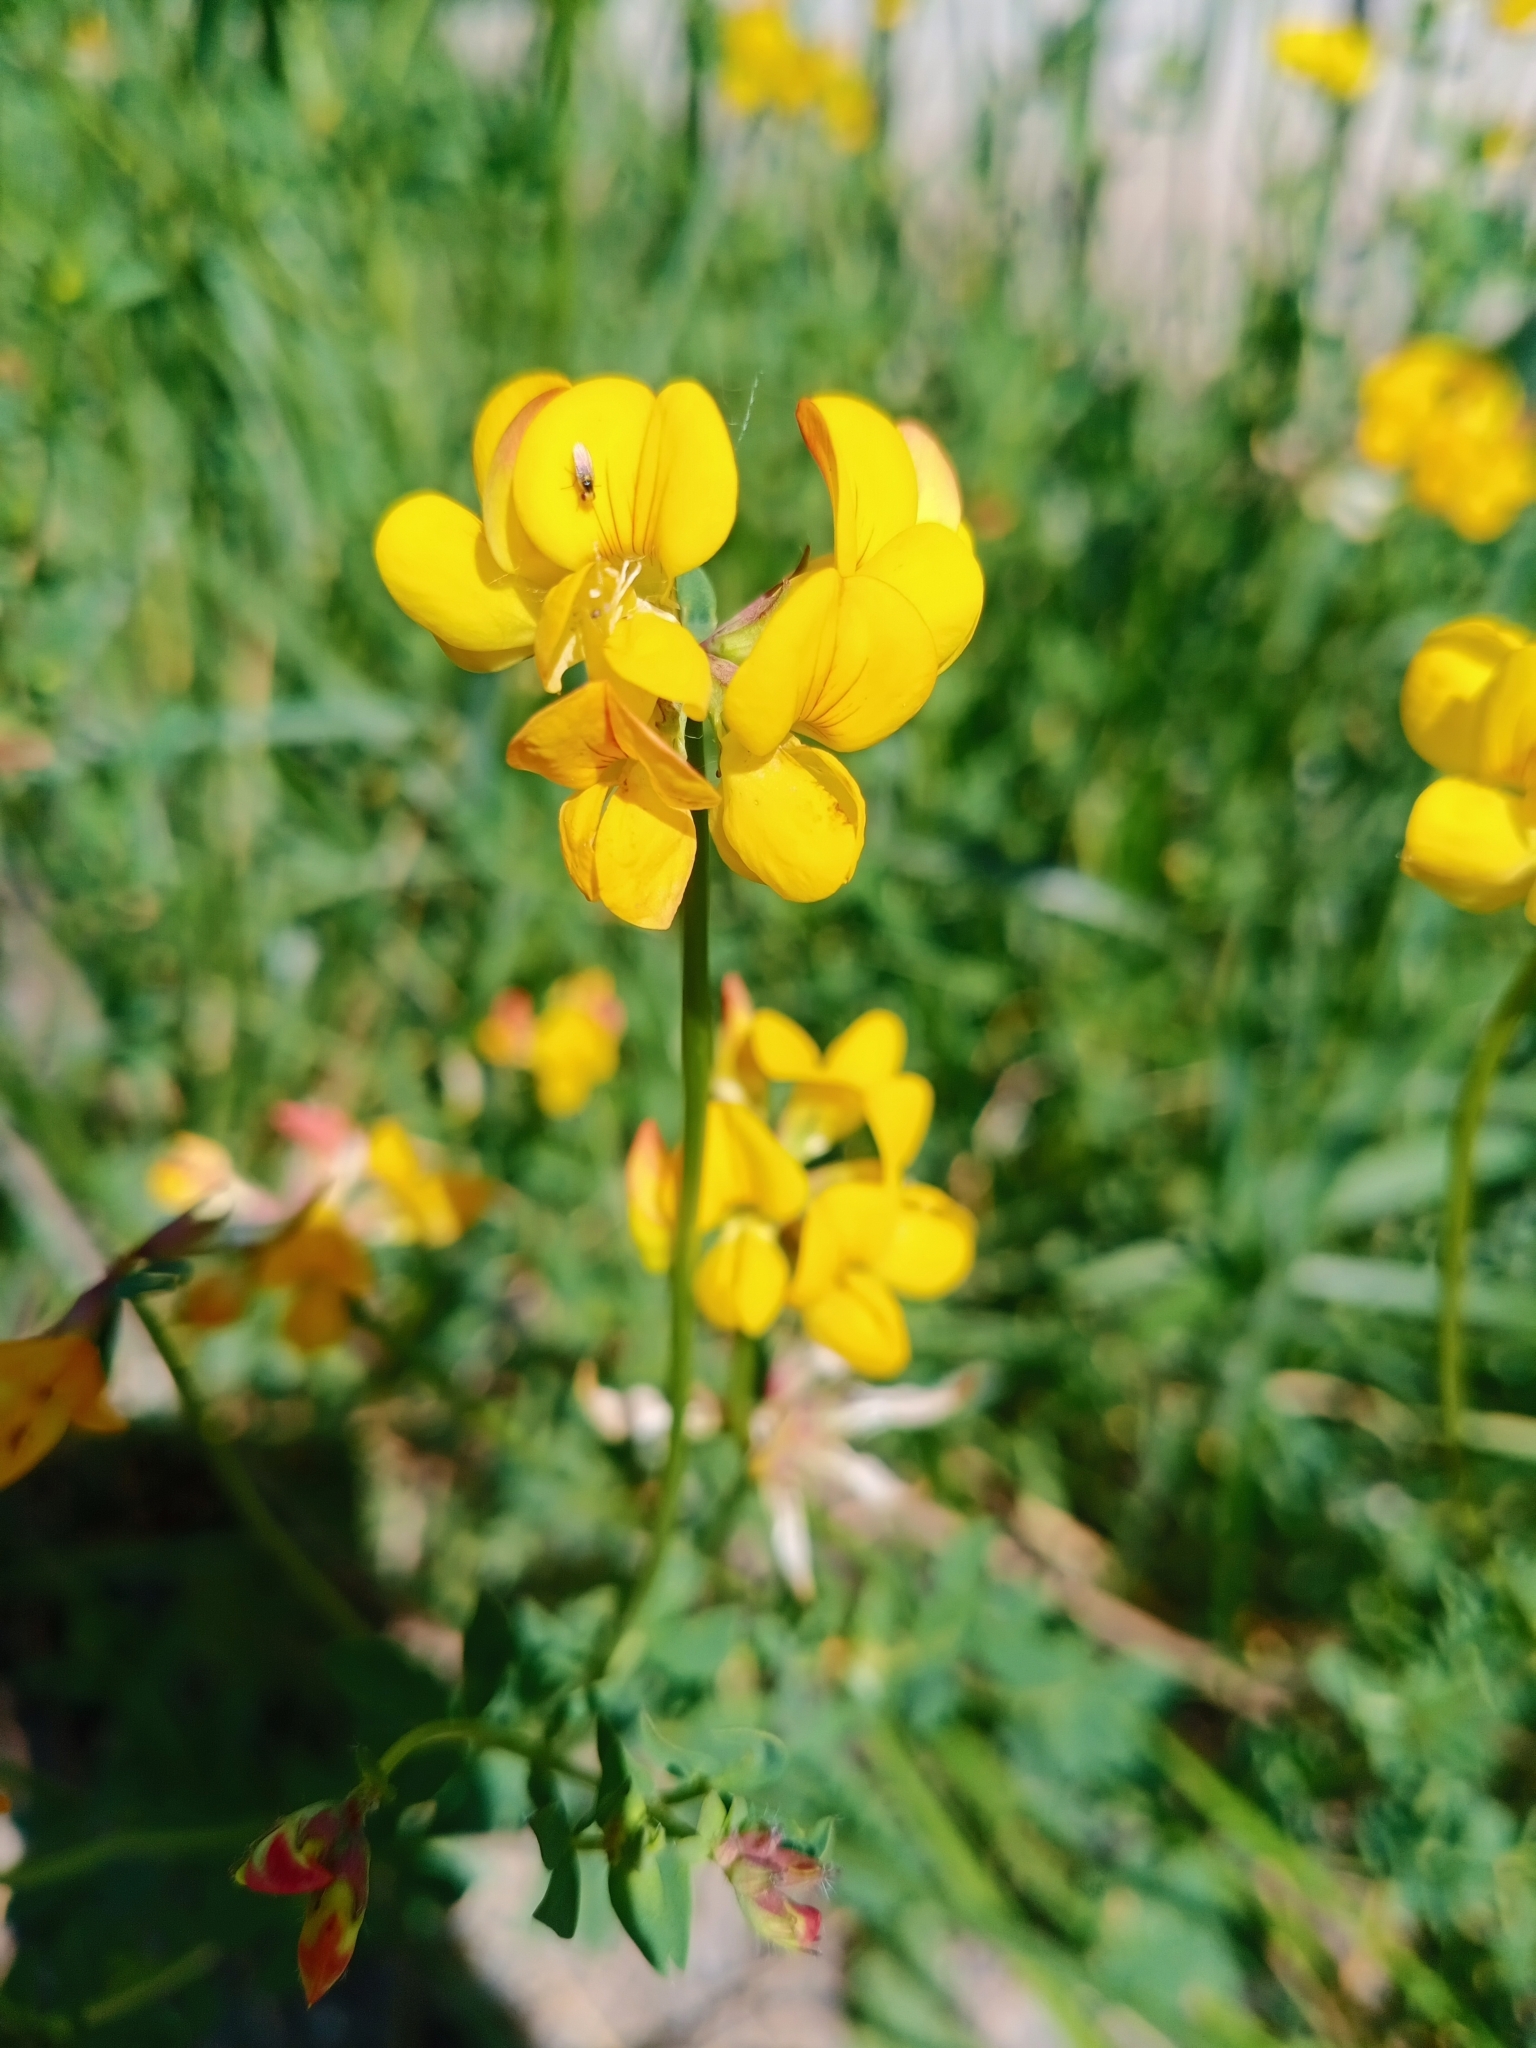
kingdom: Plantae
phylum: Tracheophyta
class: Magnoliopsida
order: Fabales
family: Fabaceae
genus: Lotus
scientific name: Lotus corniculatus
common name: Common bird's-foot-trefoil
